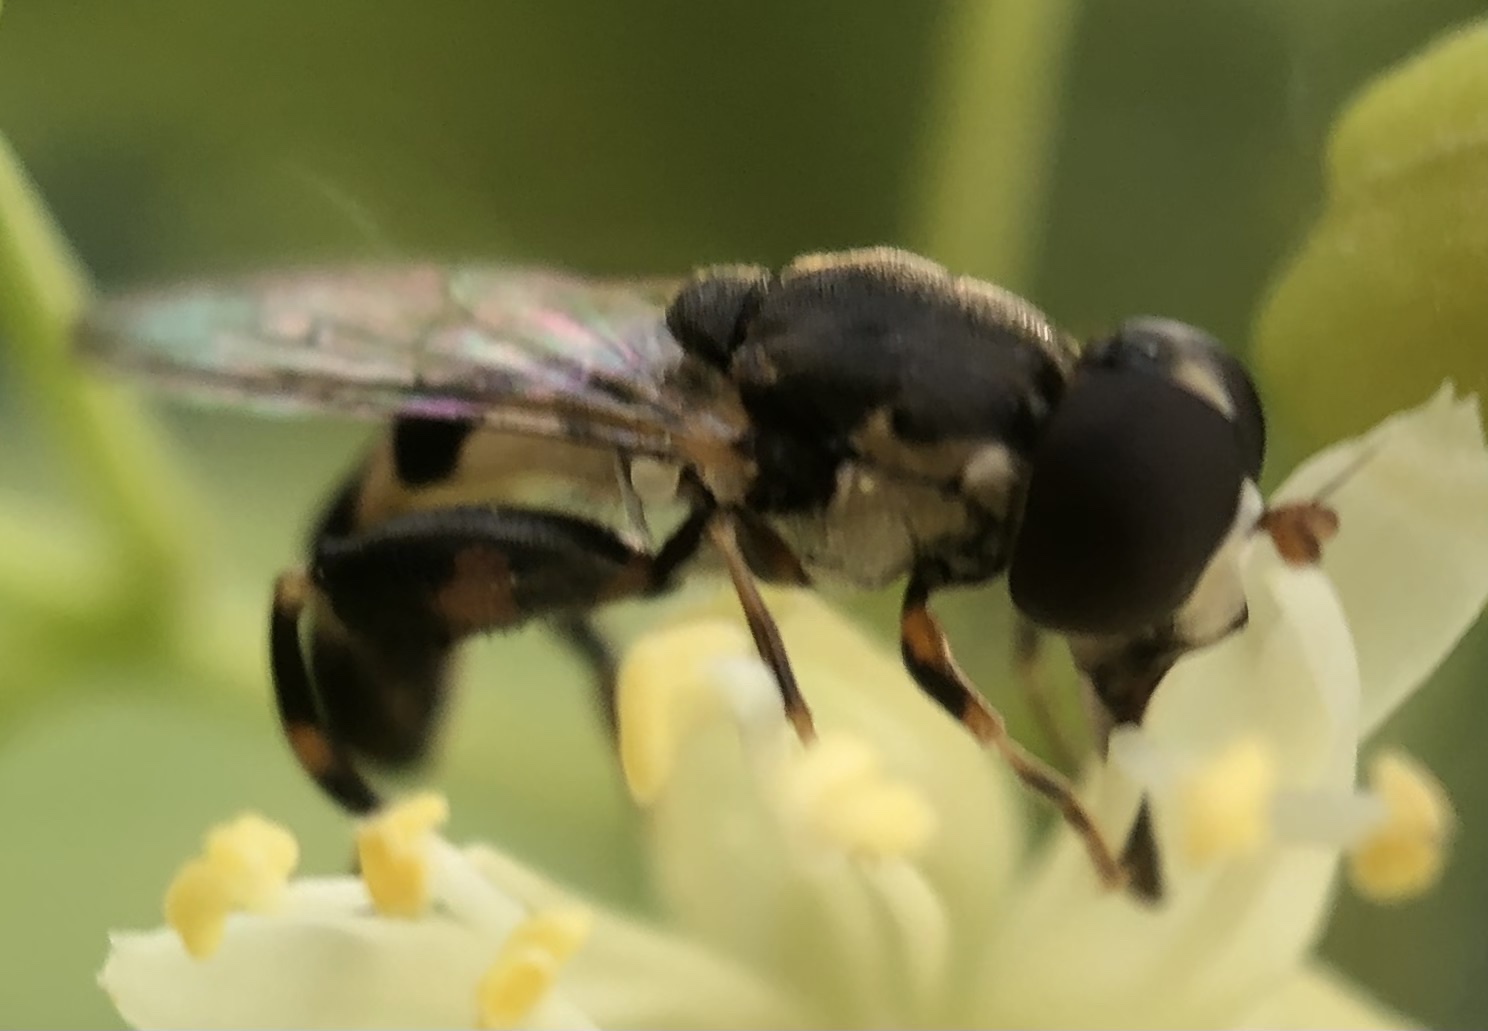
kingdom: Animalia
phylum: Arthropoda
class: Insecta
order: Diptera
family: Syrphidae
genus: Syritta
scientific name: Syritta pipiens
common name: Hover fly
